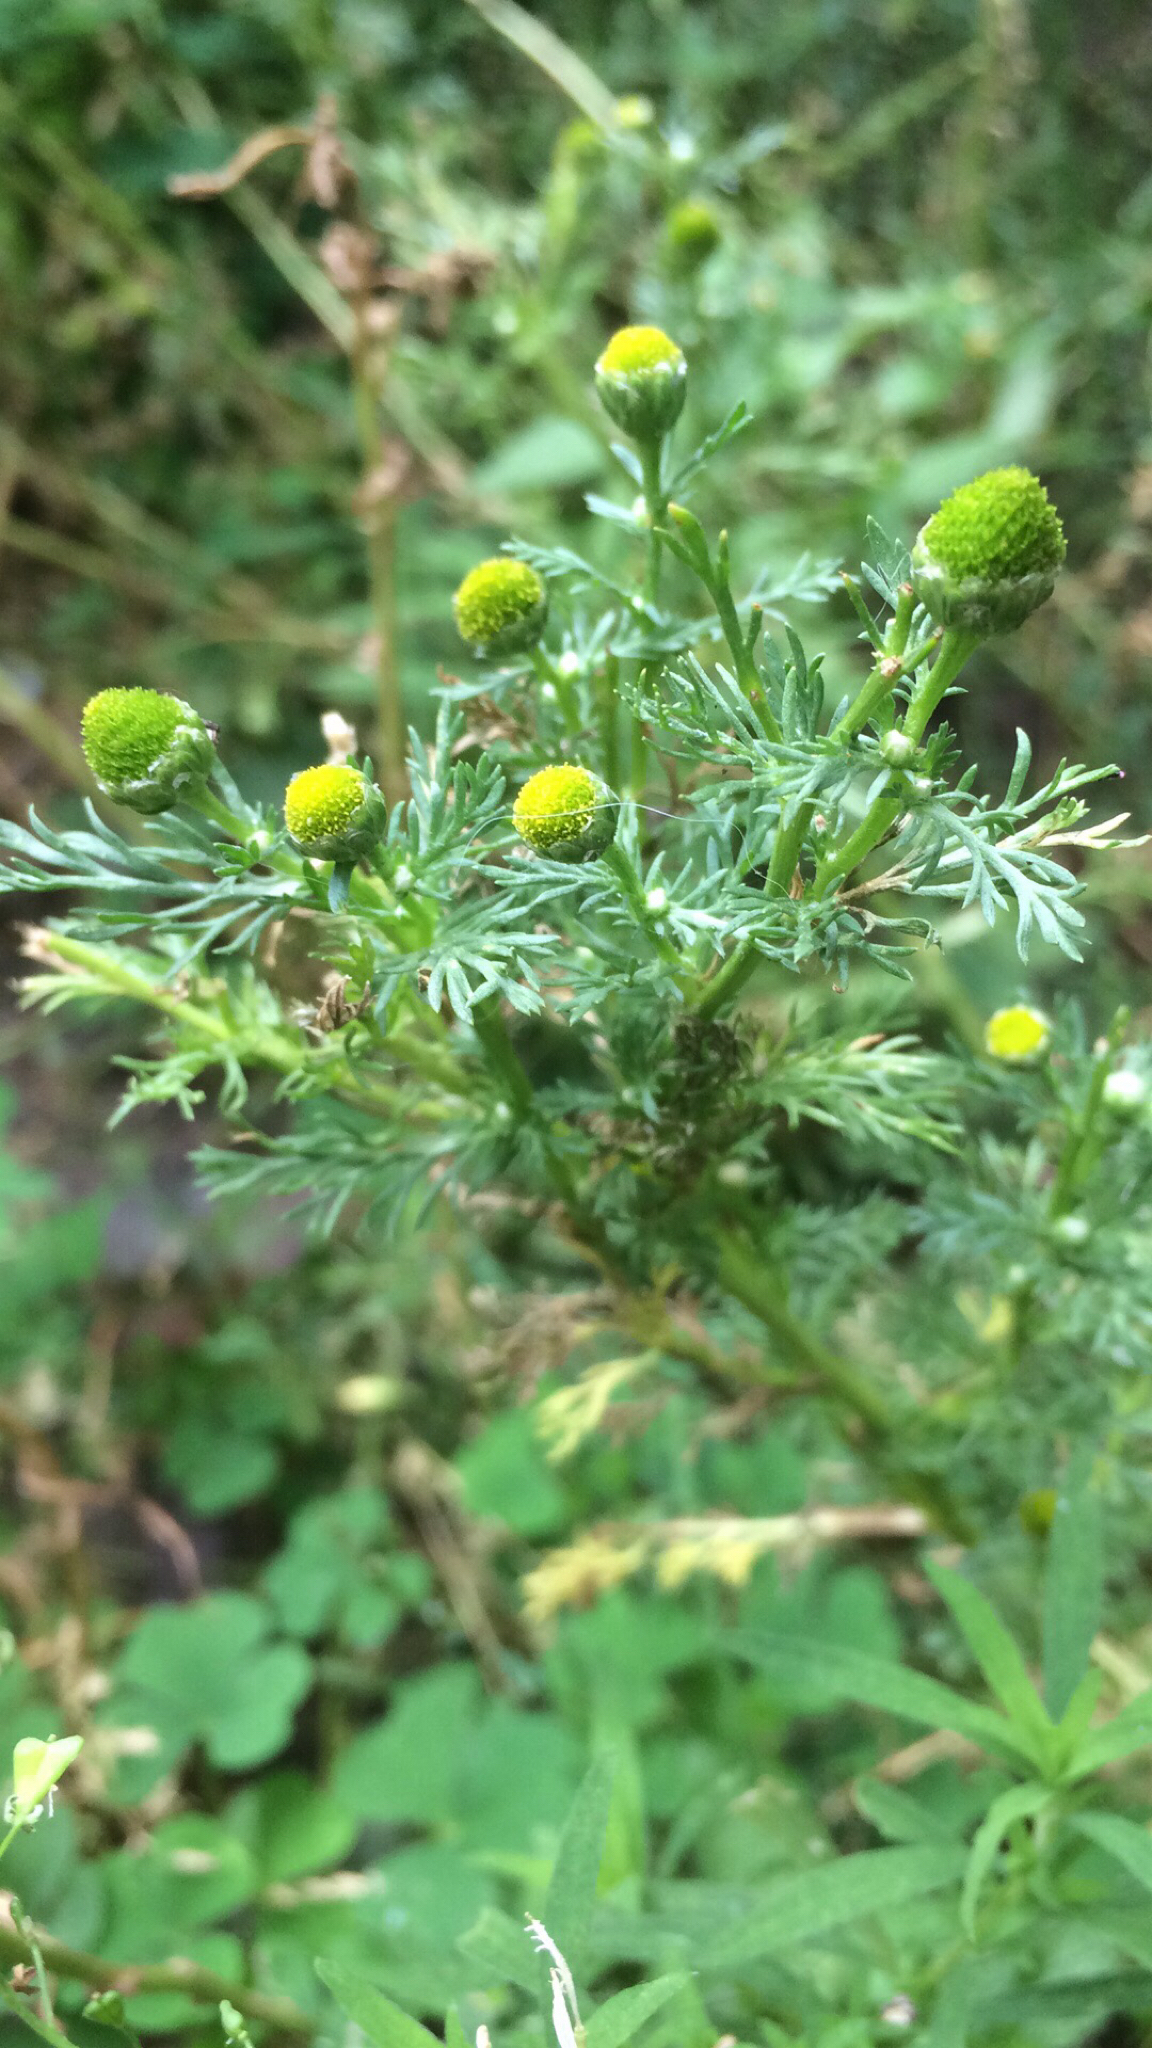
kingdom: Plantae
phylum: Tracheophyta
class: Magnoliopsida
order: Asterales
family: Asteraceae
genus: Matricaria
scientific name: Matricaria discoidea
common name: Disc mayweed
